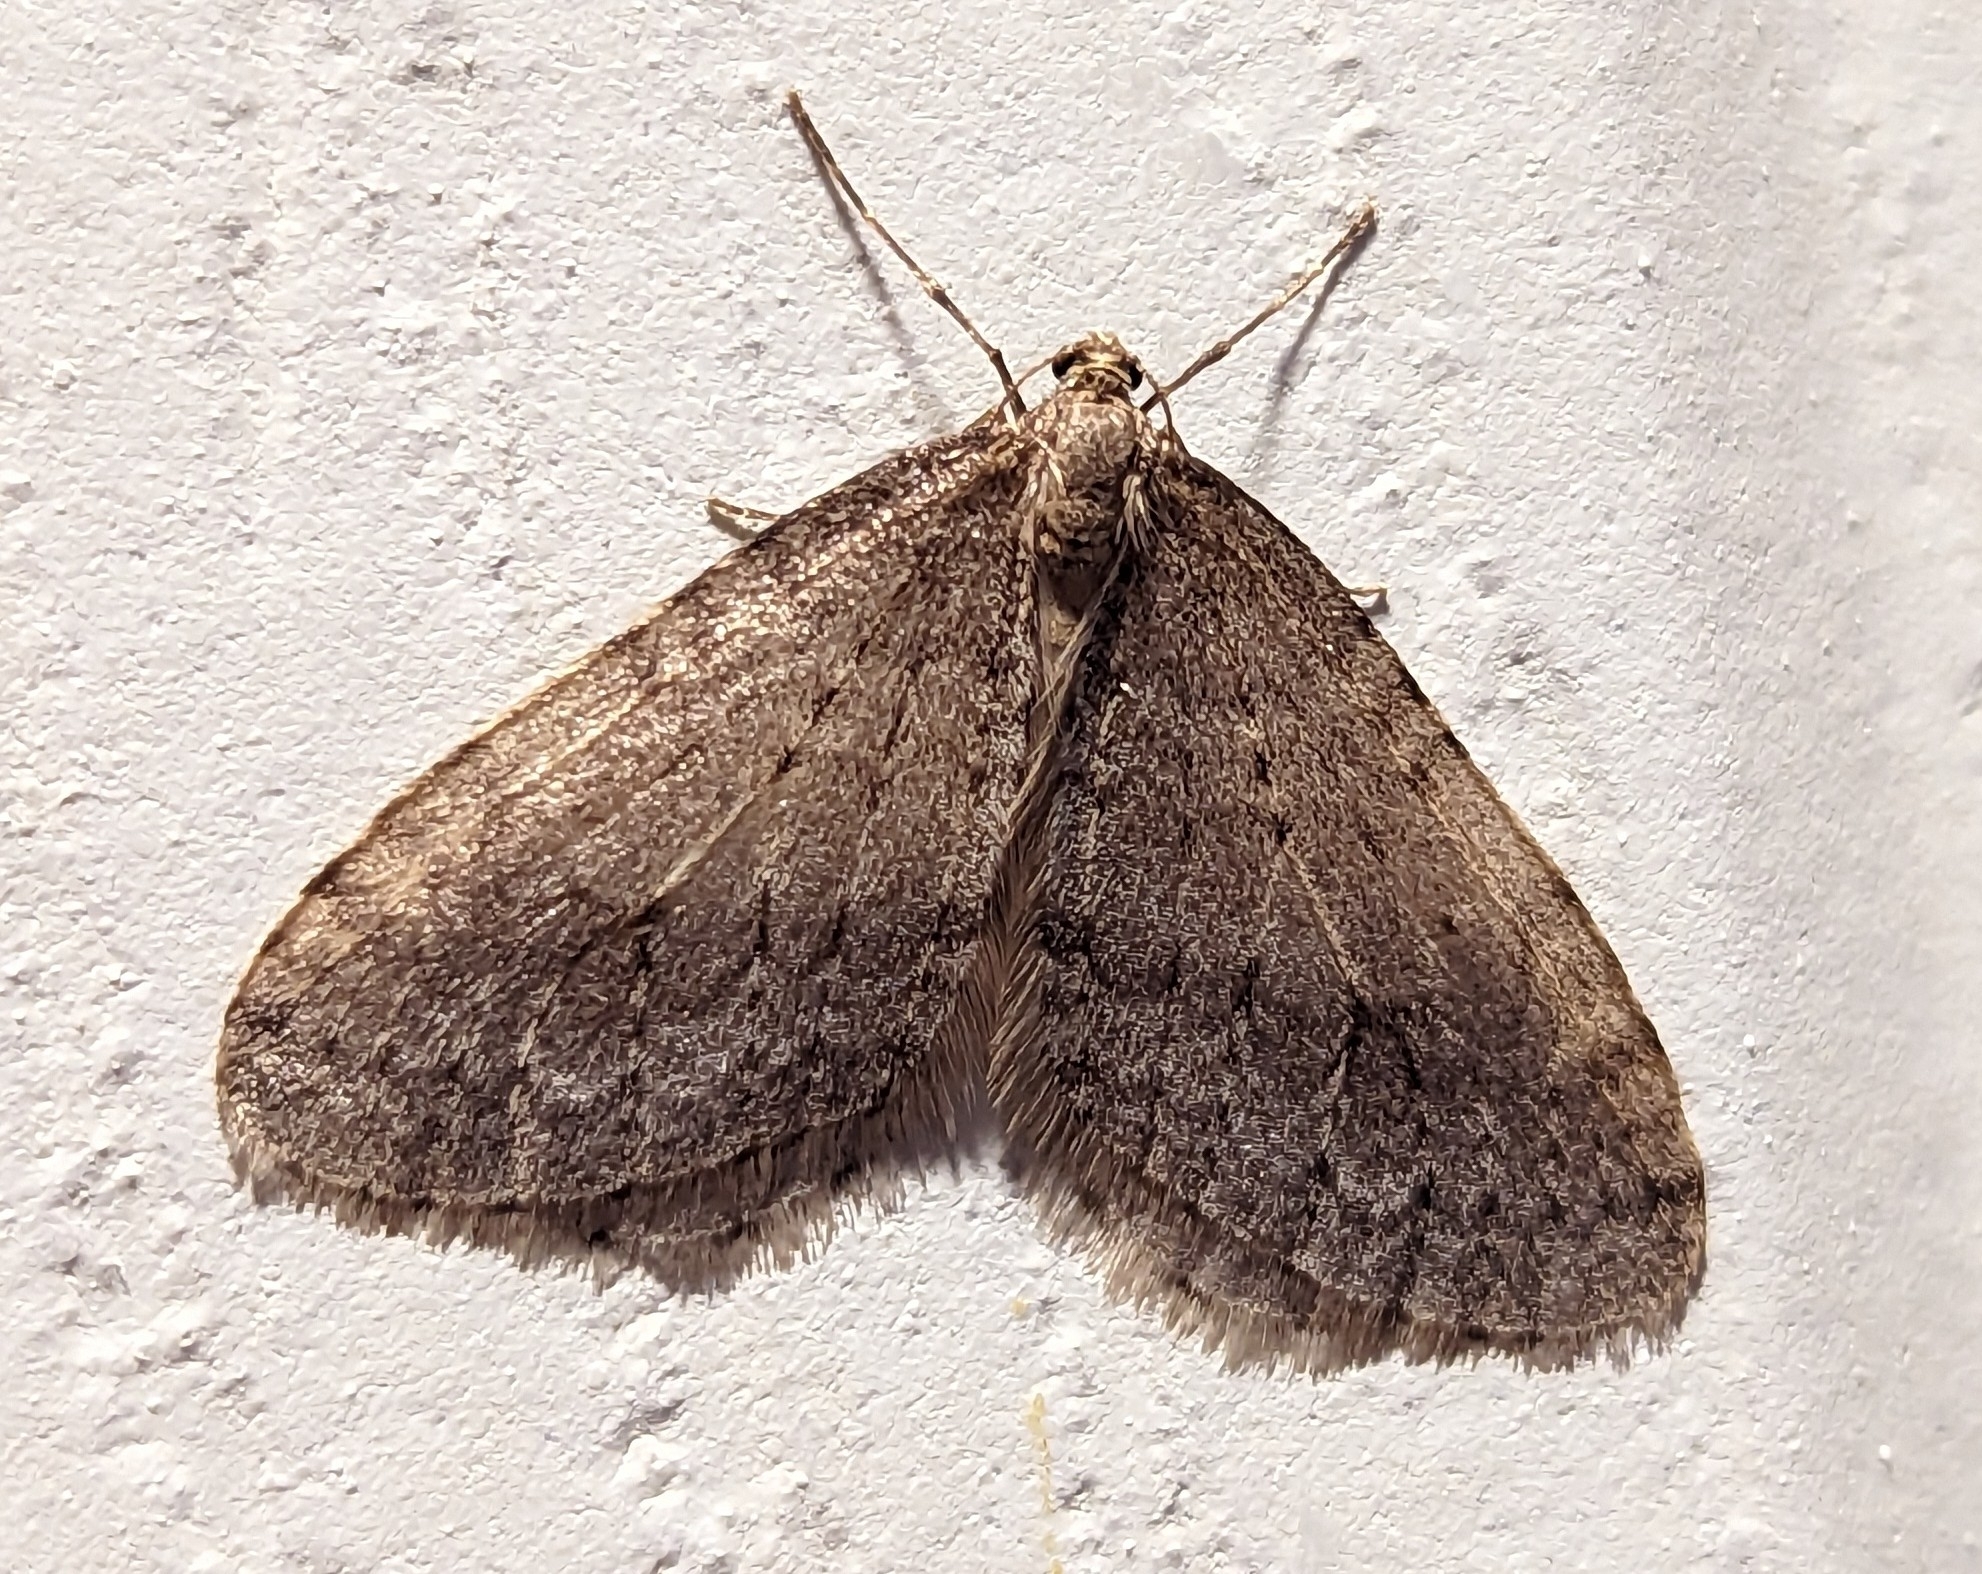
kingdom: Animalia
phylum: Arthropoda
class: Insecta
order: Lepidoptera
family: Geometridae
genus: Operophtera
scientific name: Operophtera bruceata
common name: Bruce spanworm
